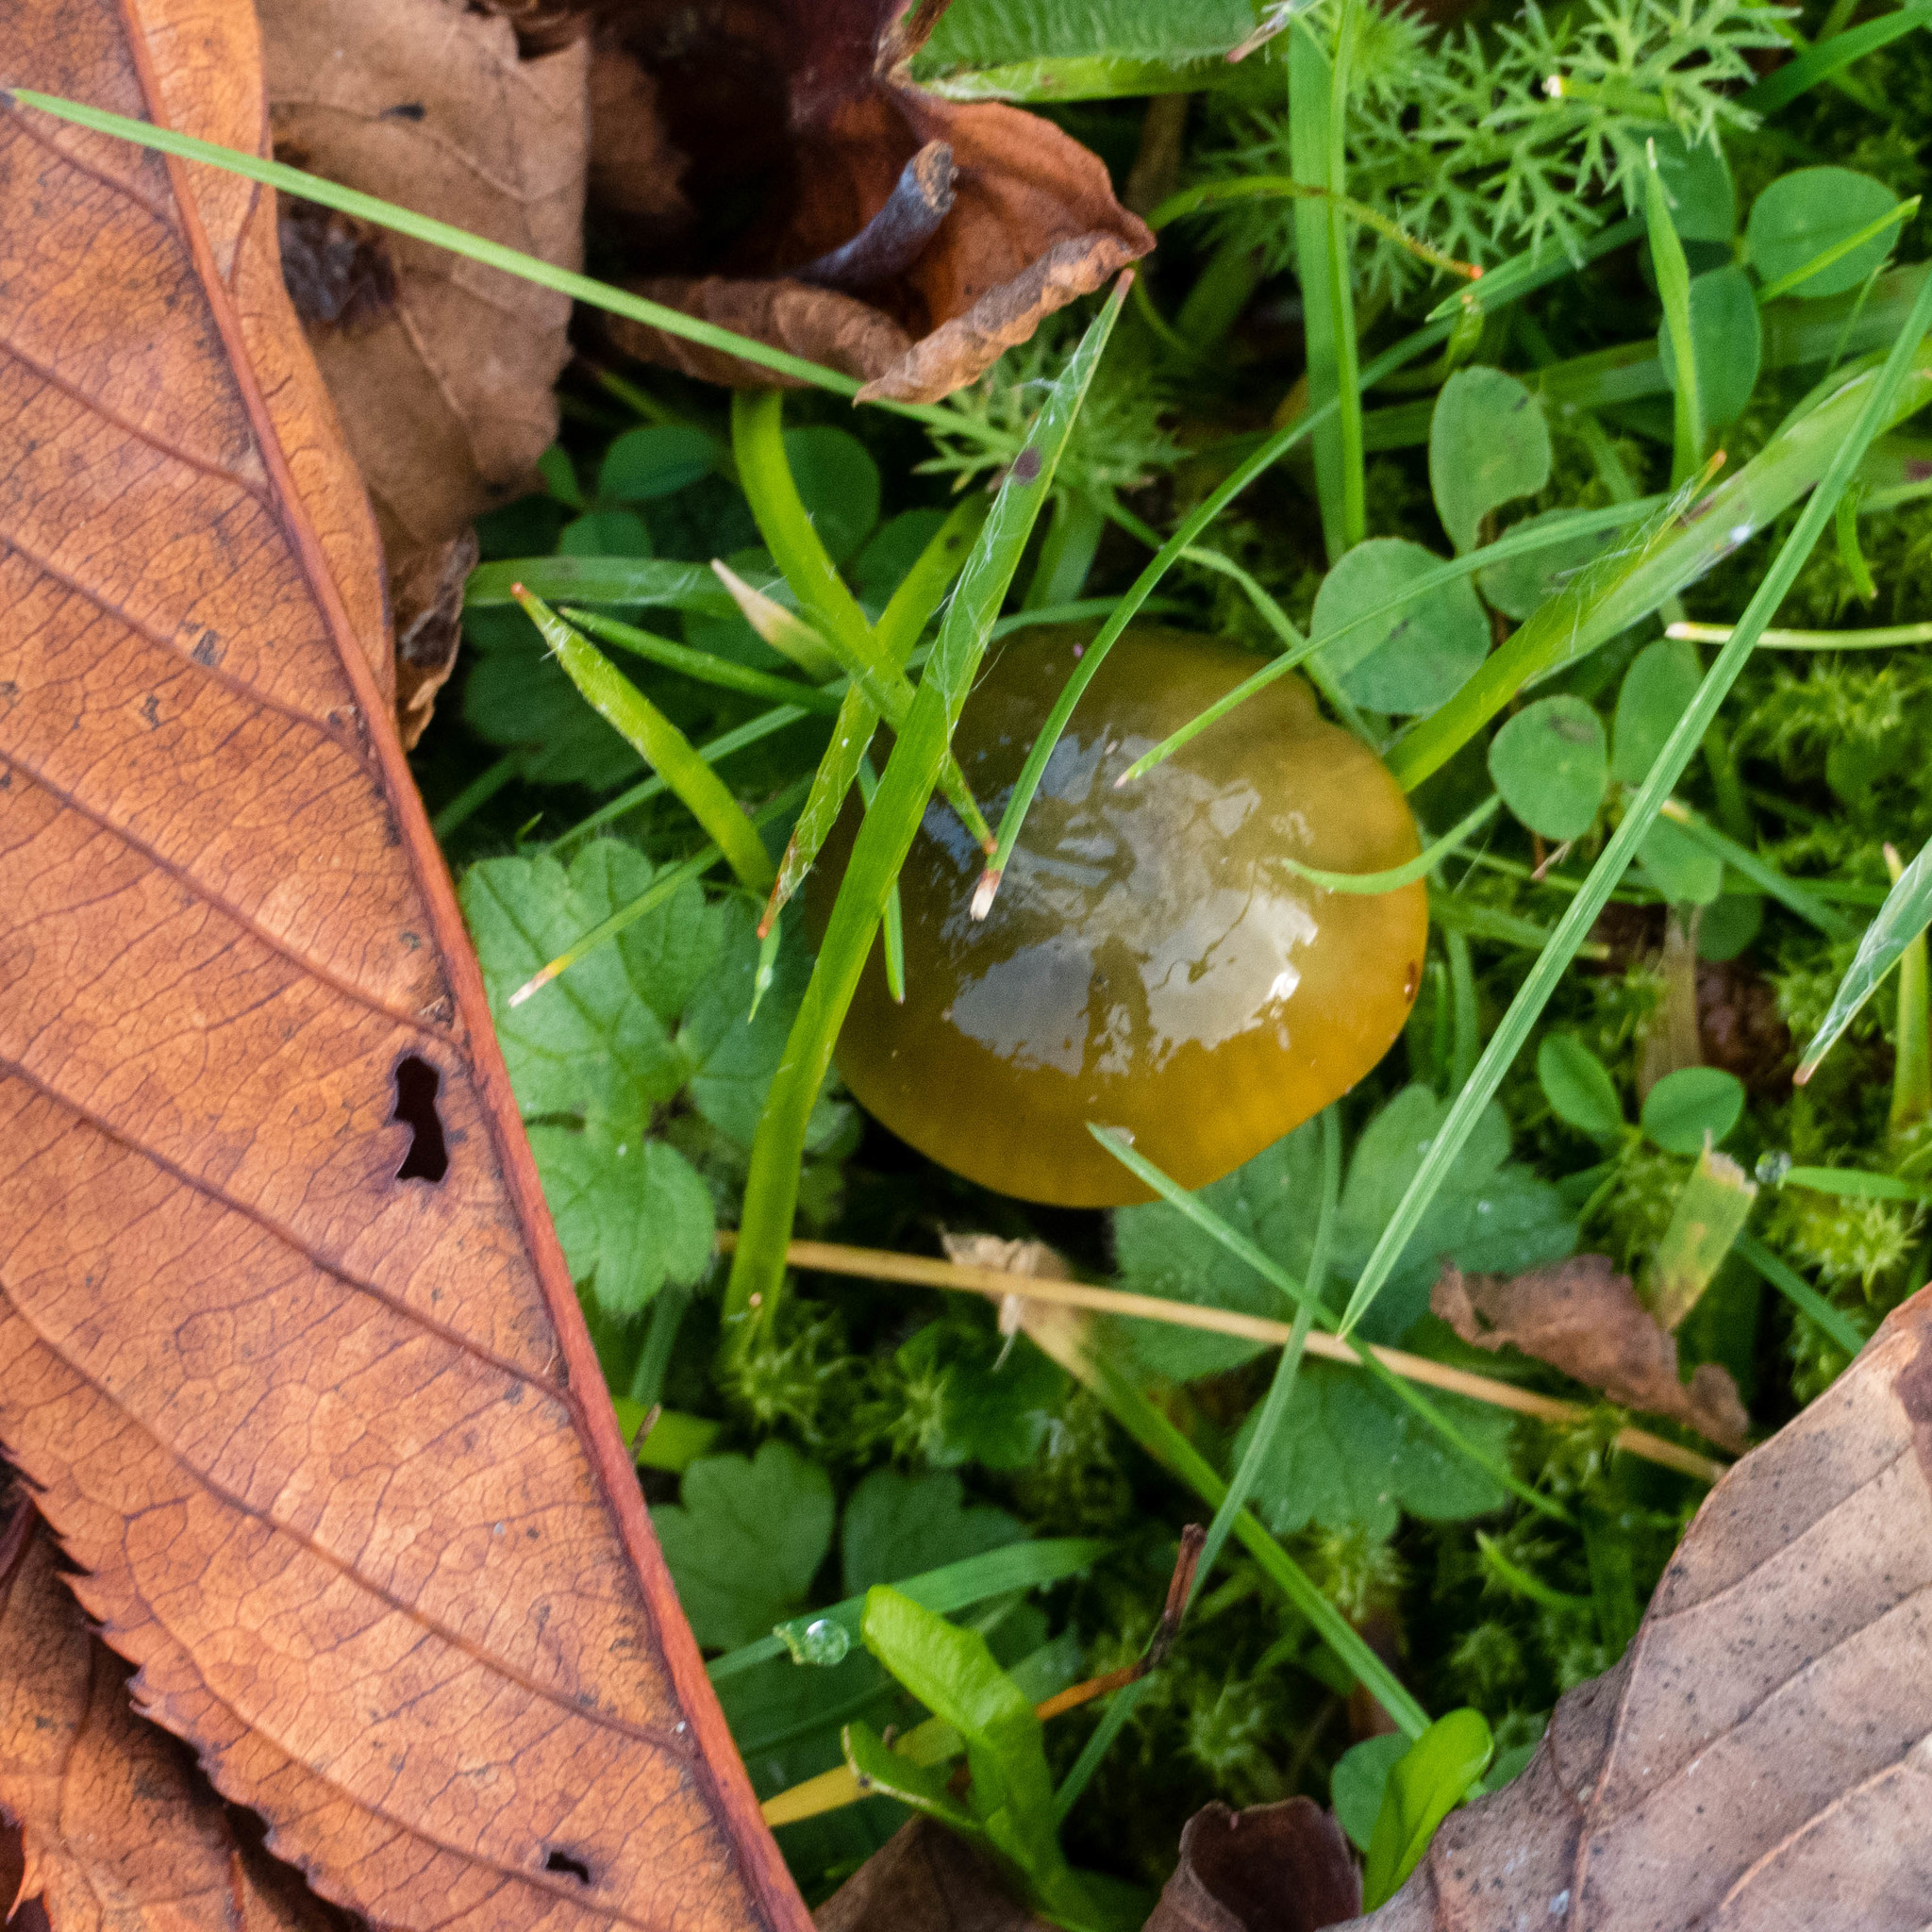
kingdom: Fungi
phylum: Basidiomycota
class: Agaricomycetes
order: Agaricales
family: Hygrophoraceae
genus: Gliophorus
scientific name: Gliophorus psittacinus
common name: Parrot wax-cap
